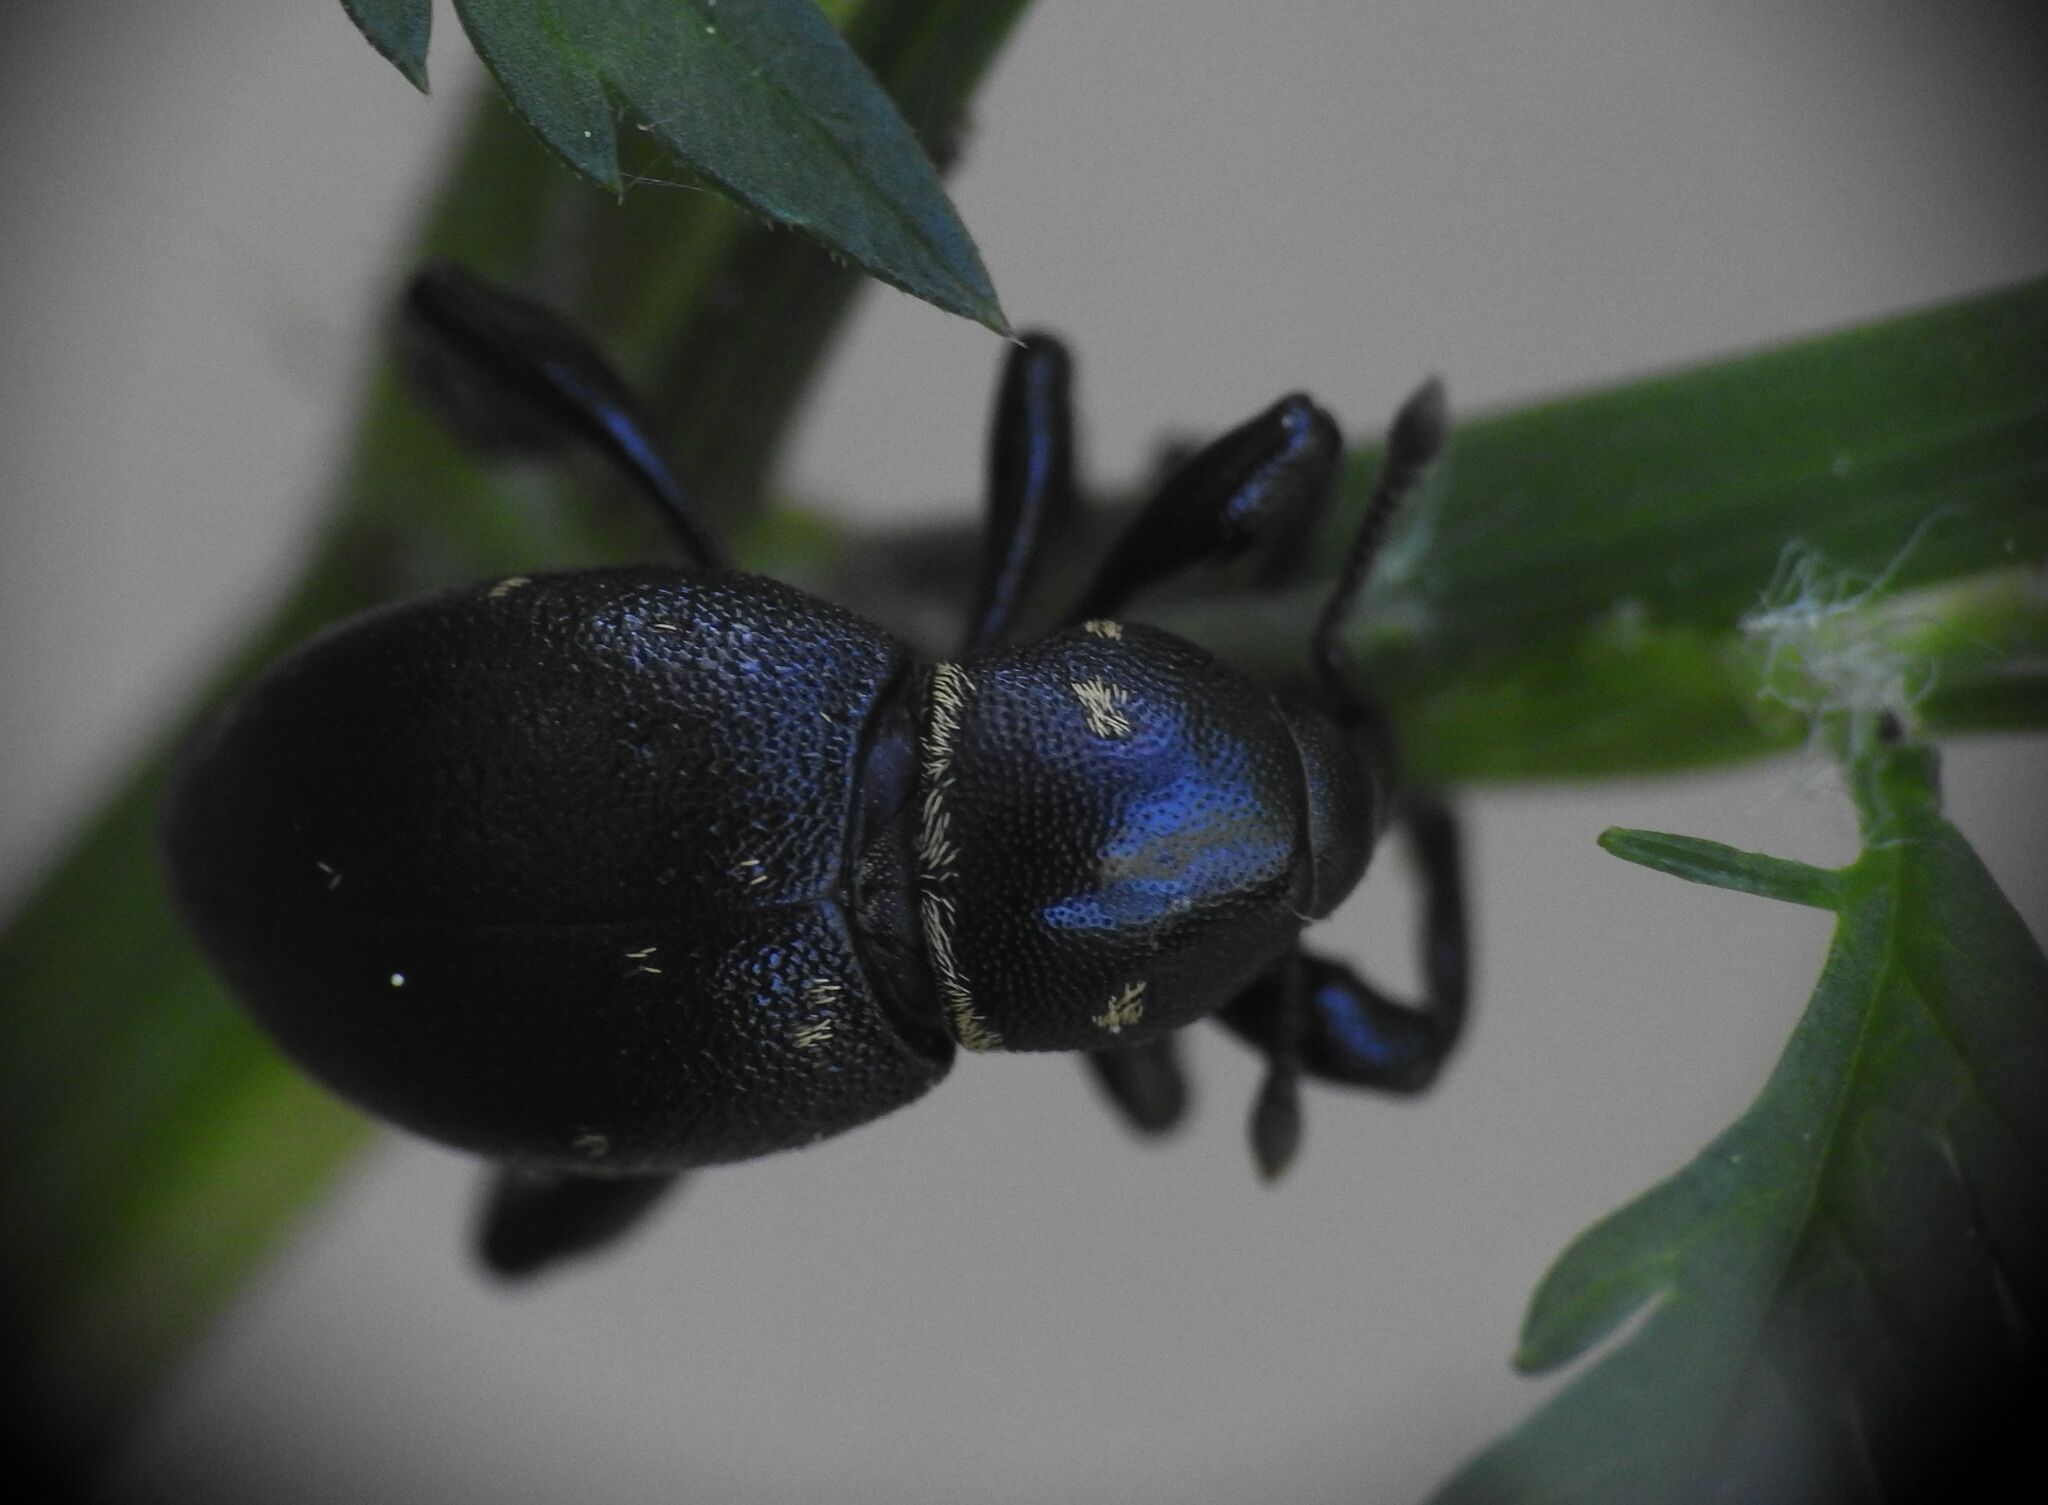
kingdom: Animalia
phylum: Arthropoda
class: Insecta
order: Coleoptera
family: Curculionidae
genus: Liparus
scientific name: Liparus coronatus
